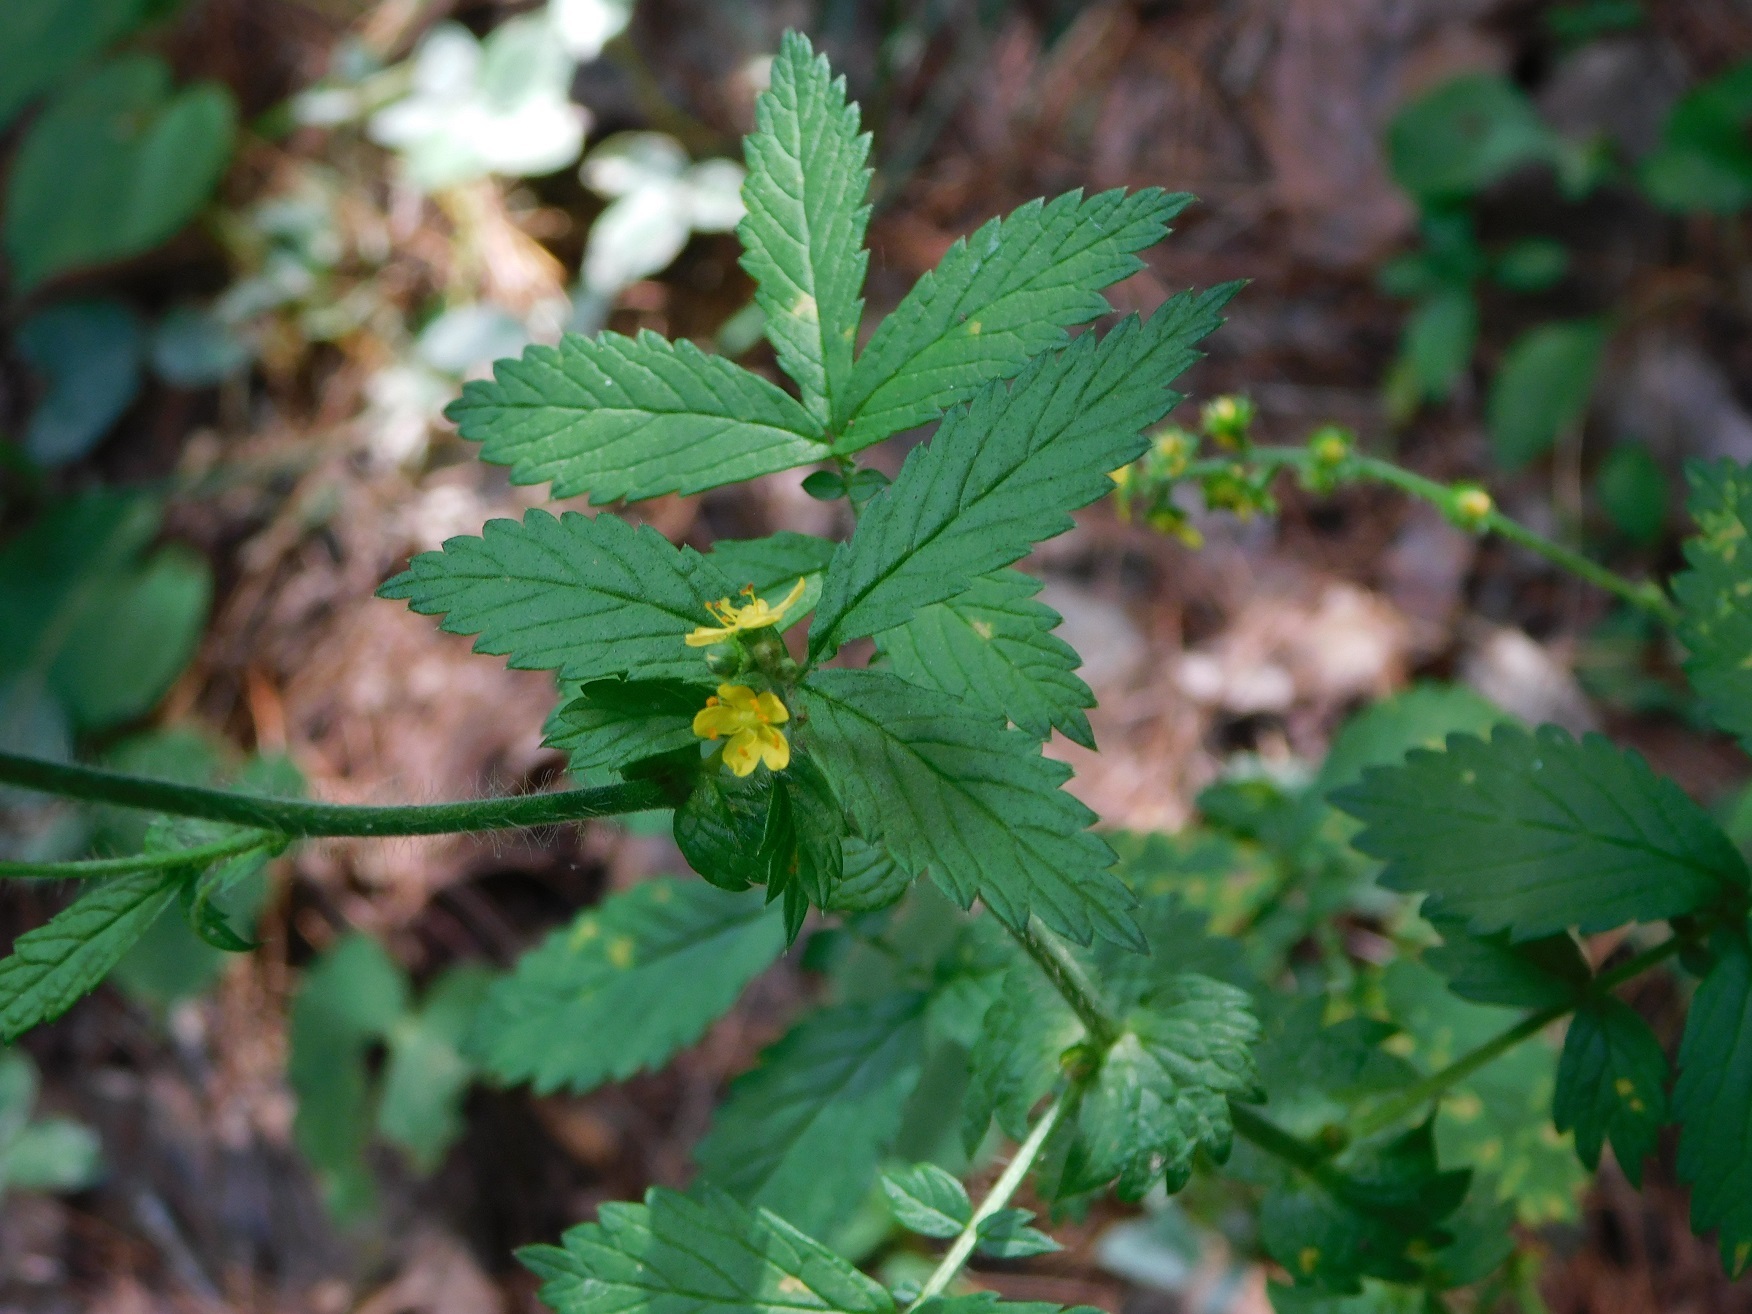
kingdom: Plantae
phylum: Tracheophyta
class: Magnoliopsida
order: Rosales
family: Rosaceae
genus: Agrimonia
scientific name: Agrimonia gryposepala
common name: Common agrimony
